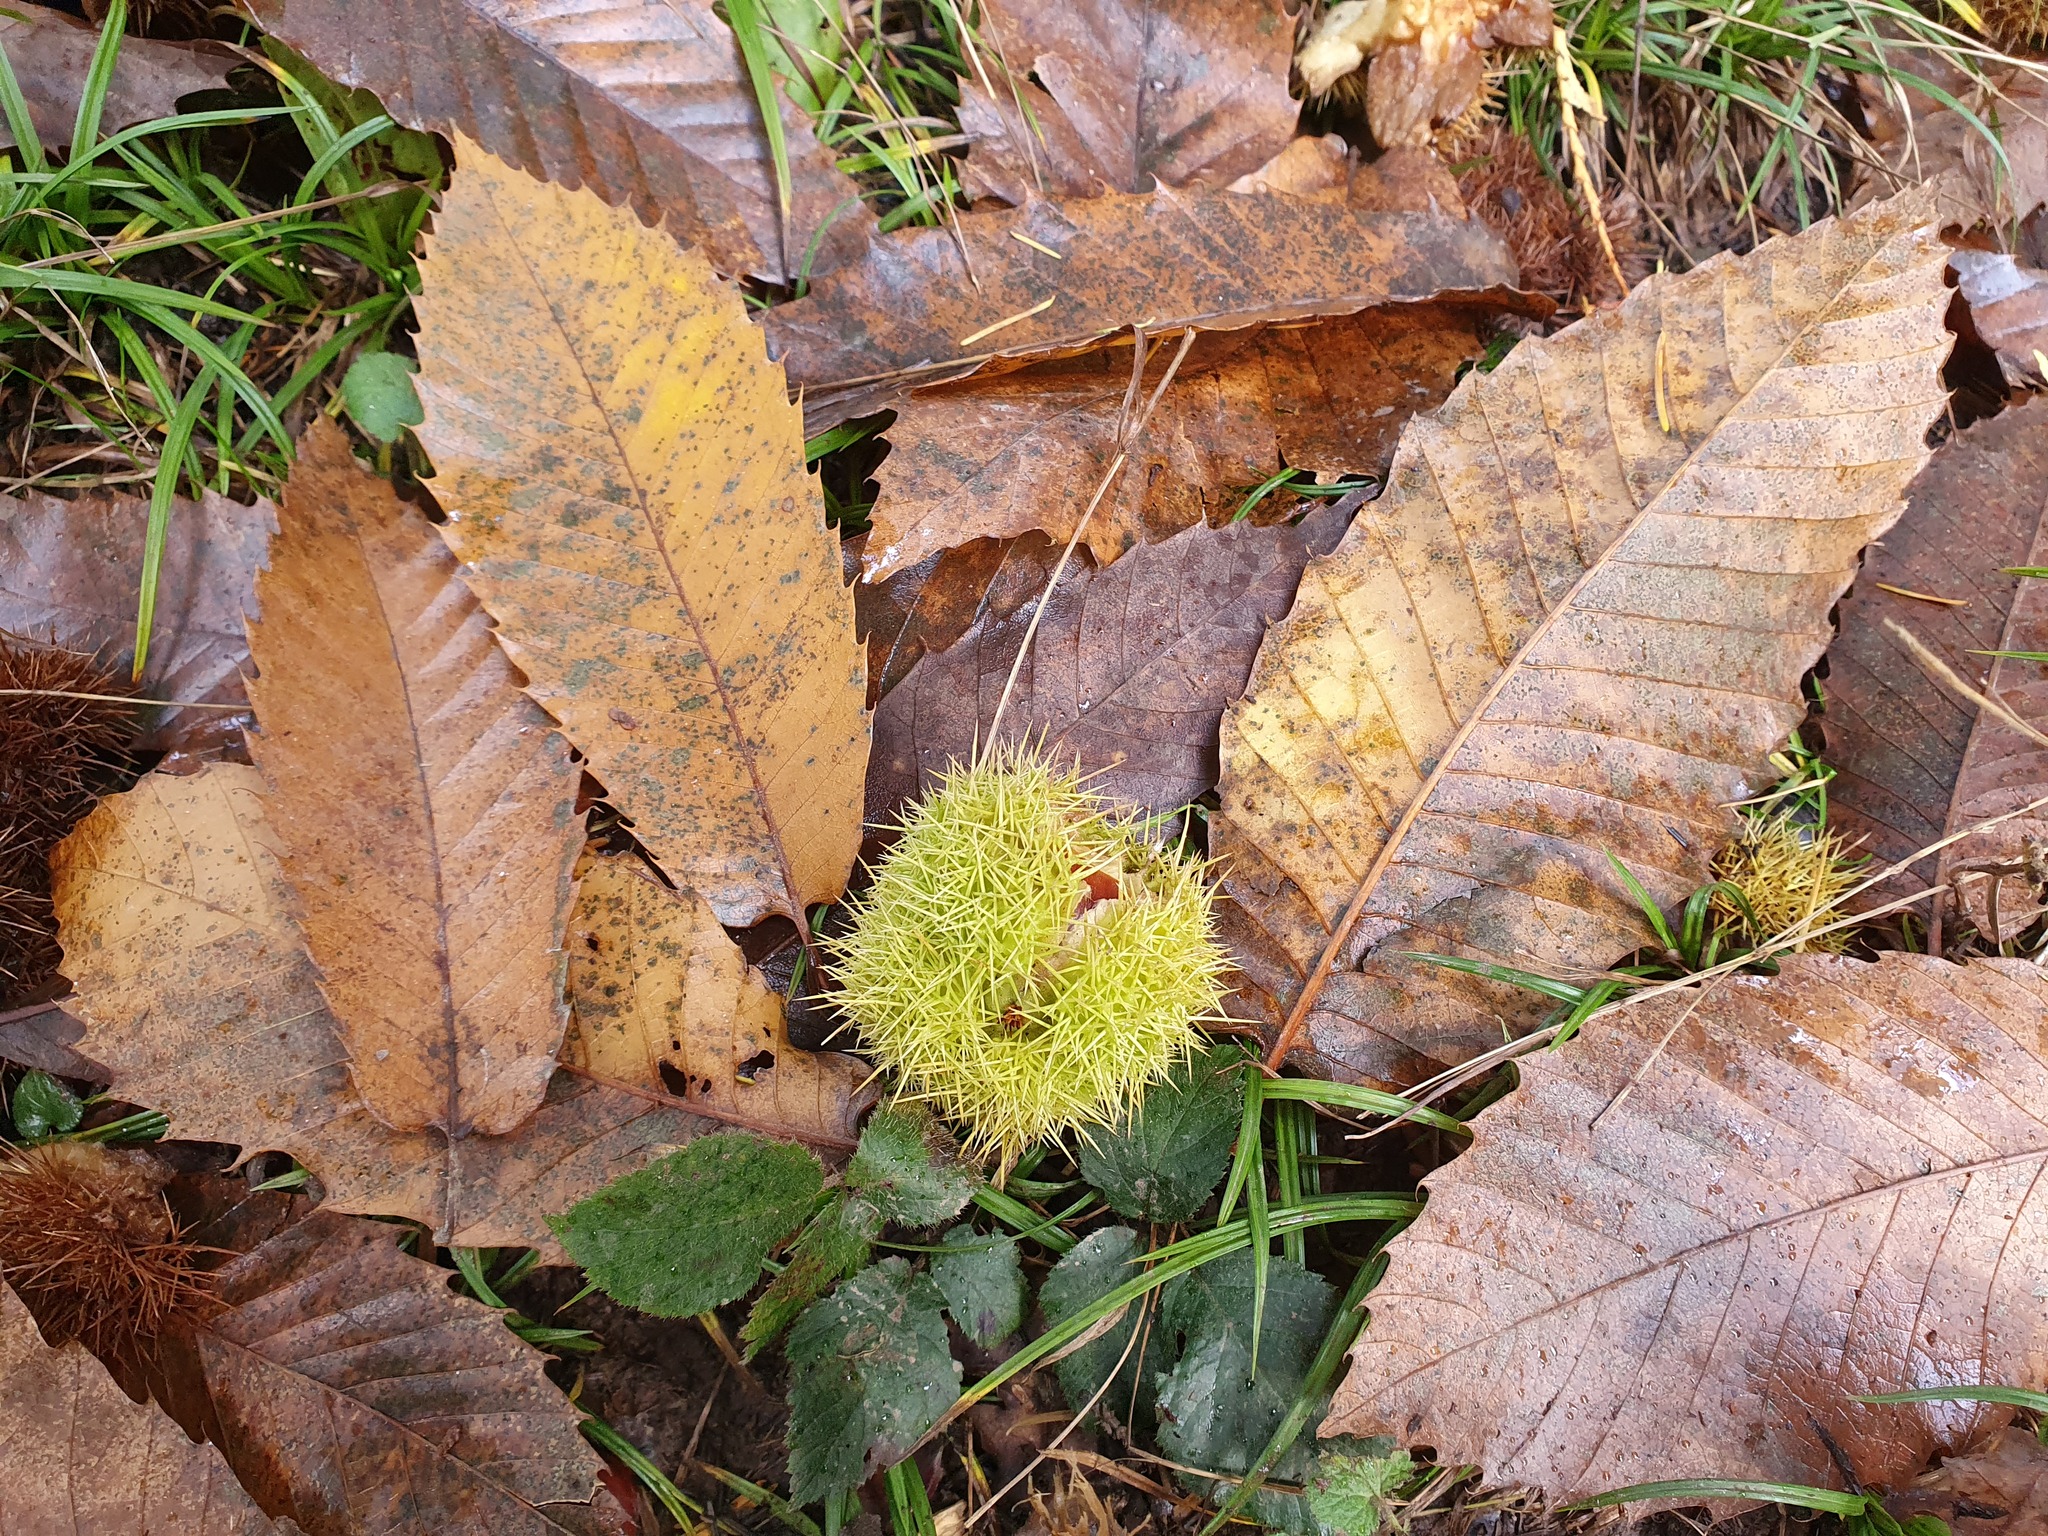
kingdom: Plantae
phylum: Tracheophyta
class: Magnoliopsida
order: Fagales
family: Fagaceae
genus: Castanea
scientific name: Castanea sativa
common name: Sweet chestnut
